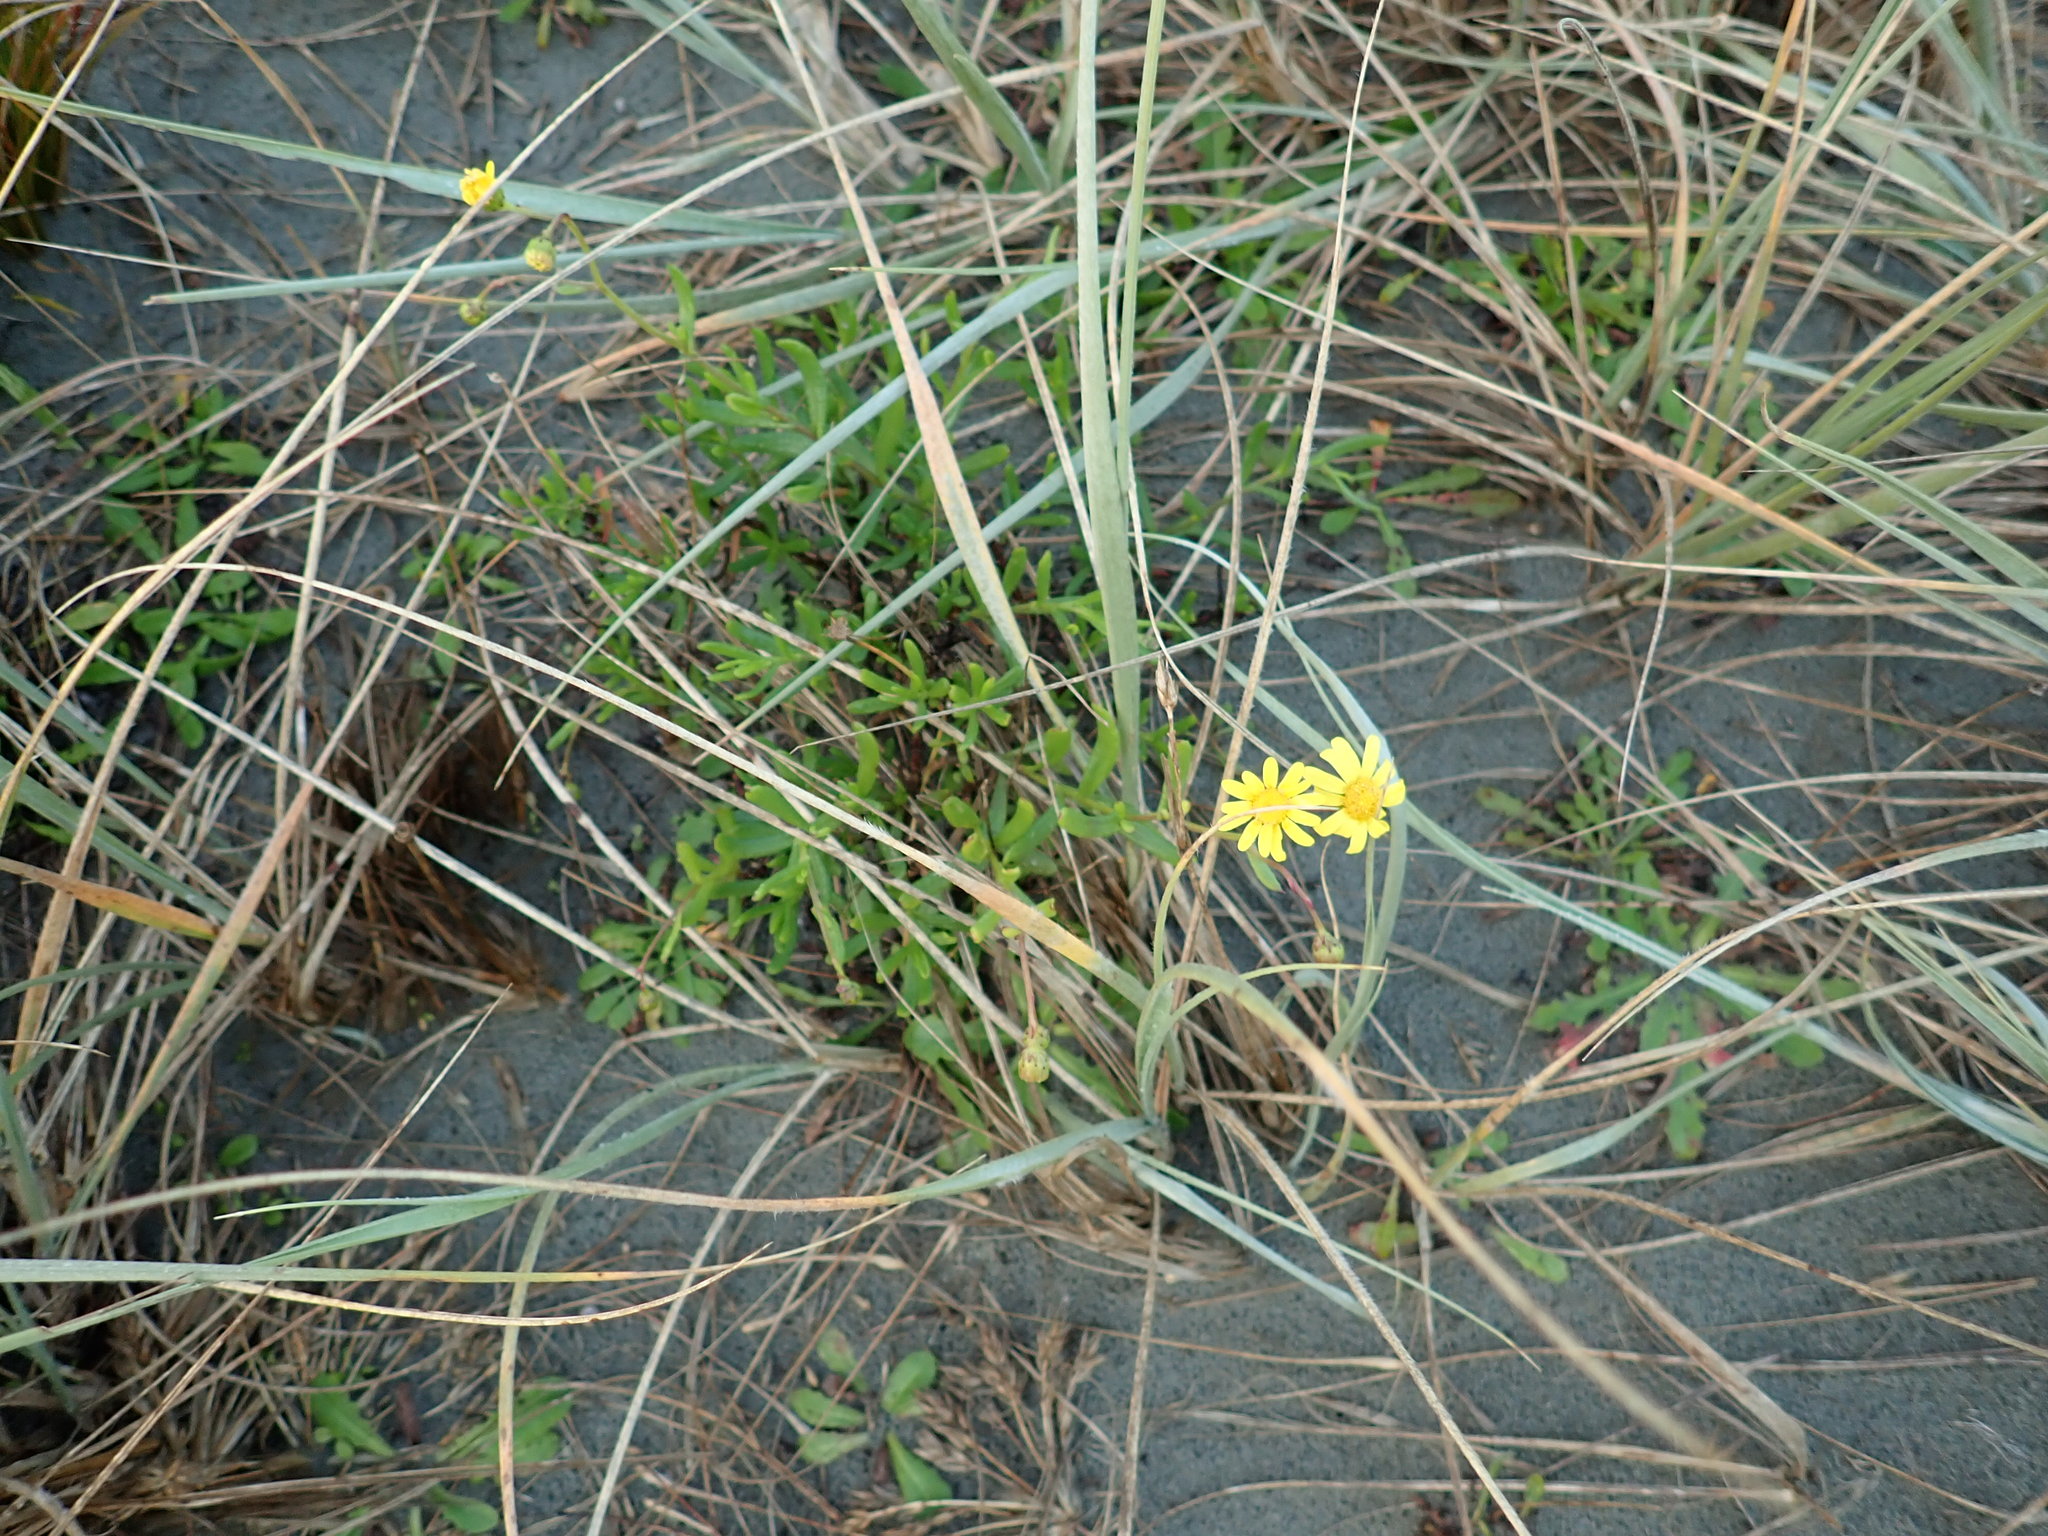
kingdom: Plantae
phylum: Tracheophyta
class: Magnoliopsida
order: Asterales
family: Asteraceae
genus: Senecio
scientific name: Senecio skirrhodon
